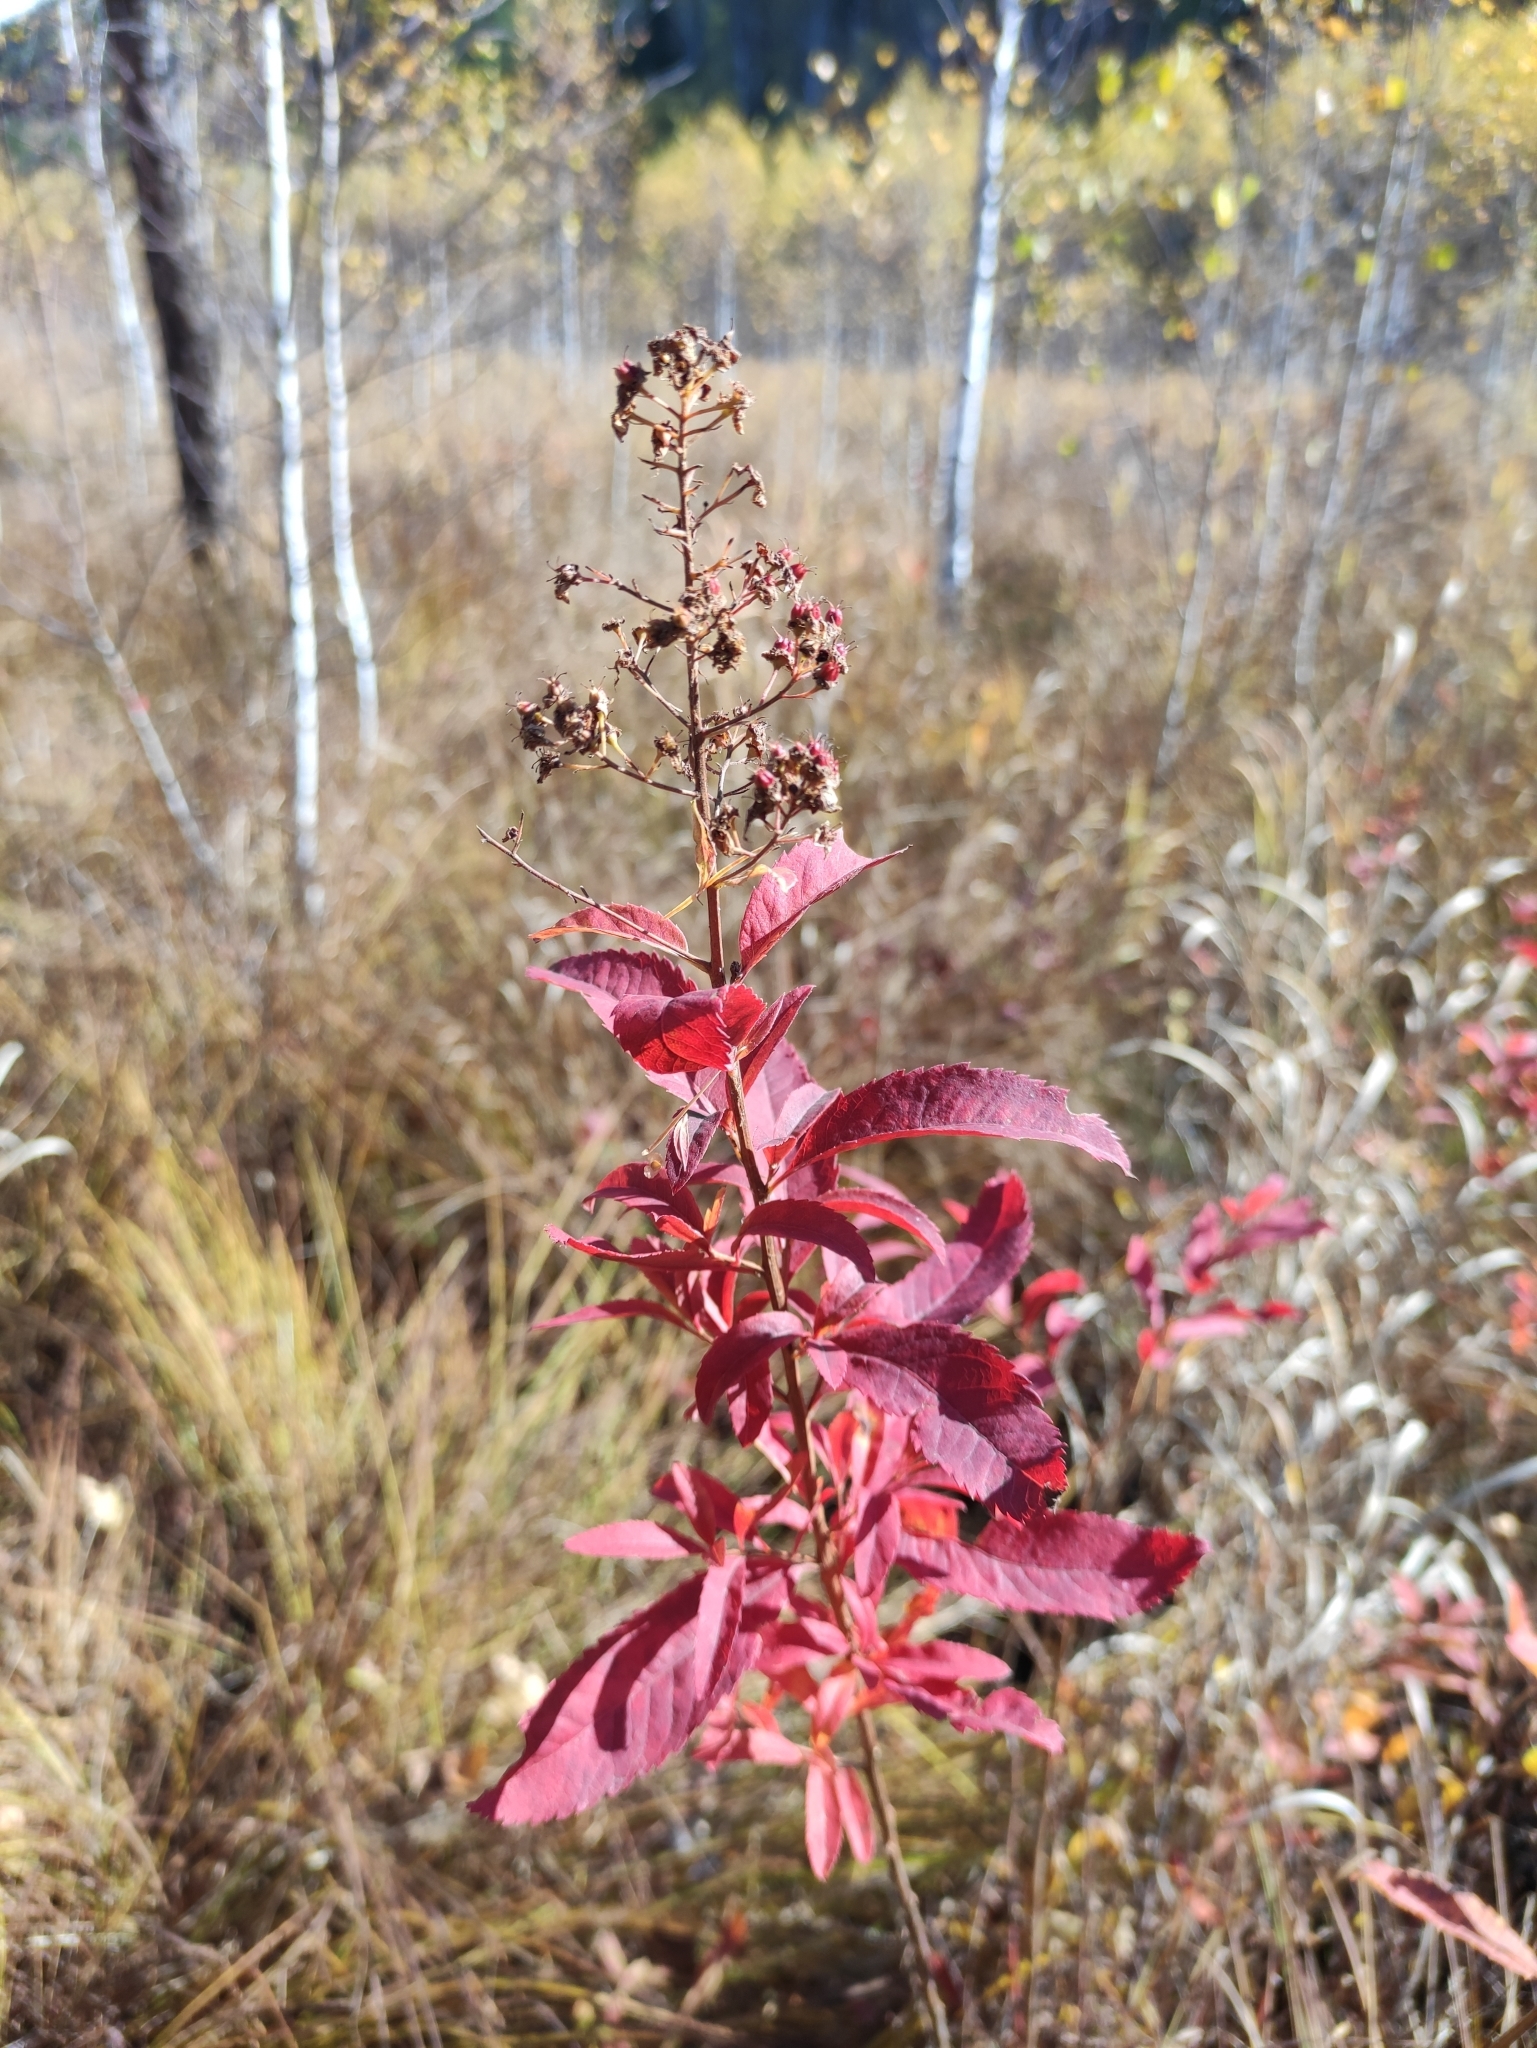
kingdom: Plantae
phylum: Tracheophyta
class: Magnoliopsida
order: Rosales
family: Rosaceae
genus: Spiraea
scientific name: Spiraea salicifolia
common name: Bridewort
